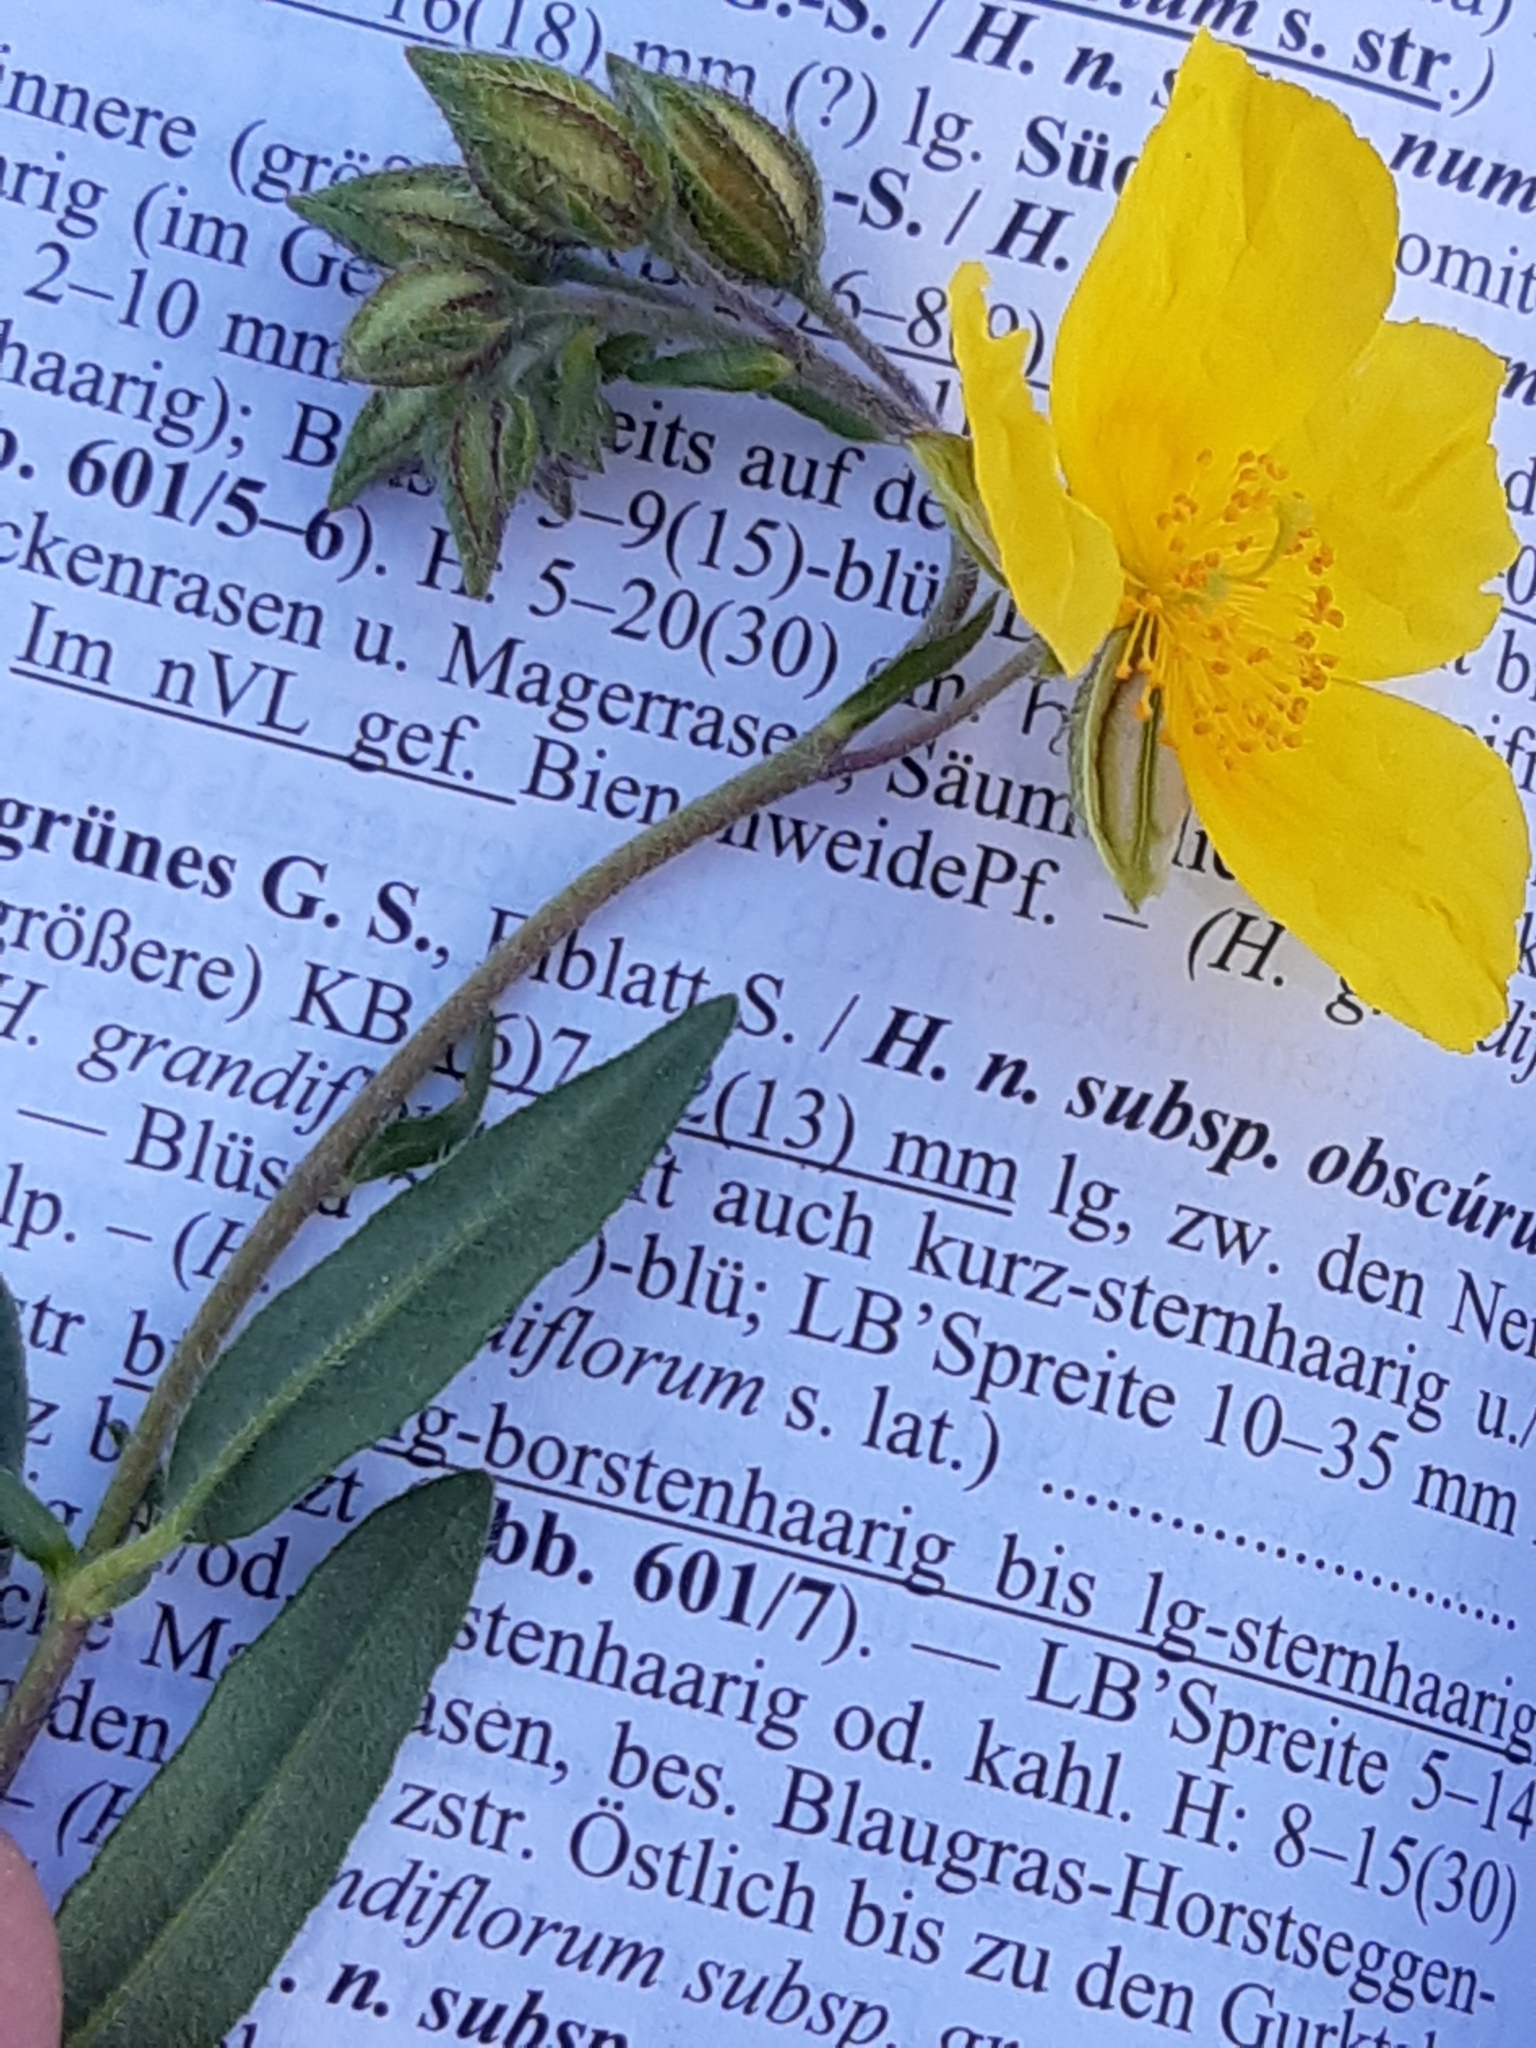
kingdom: Plantae
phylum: Tracheophyta
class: Magnoliopsida
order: Malvales
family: Cistaceae
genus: Helianthemum
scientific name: Helianthemum nummularium
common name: Common rock-rose
